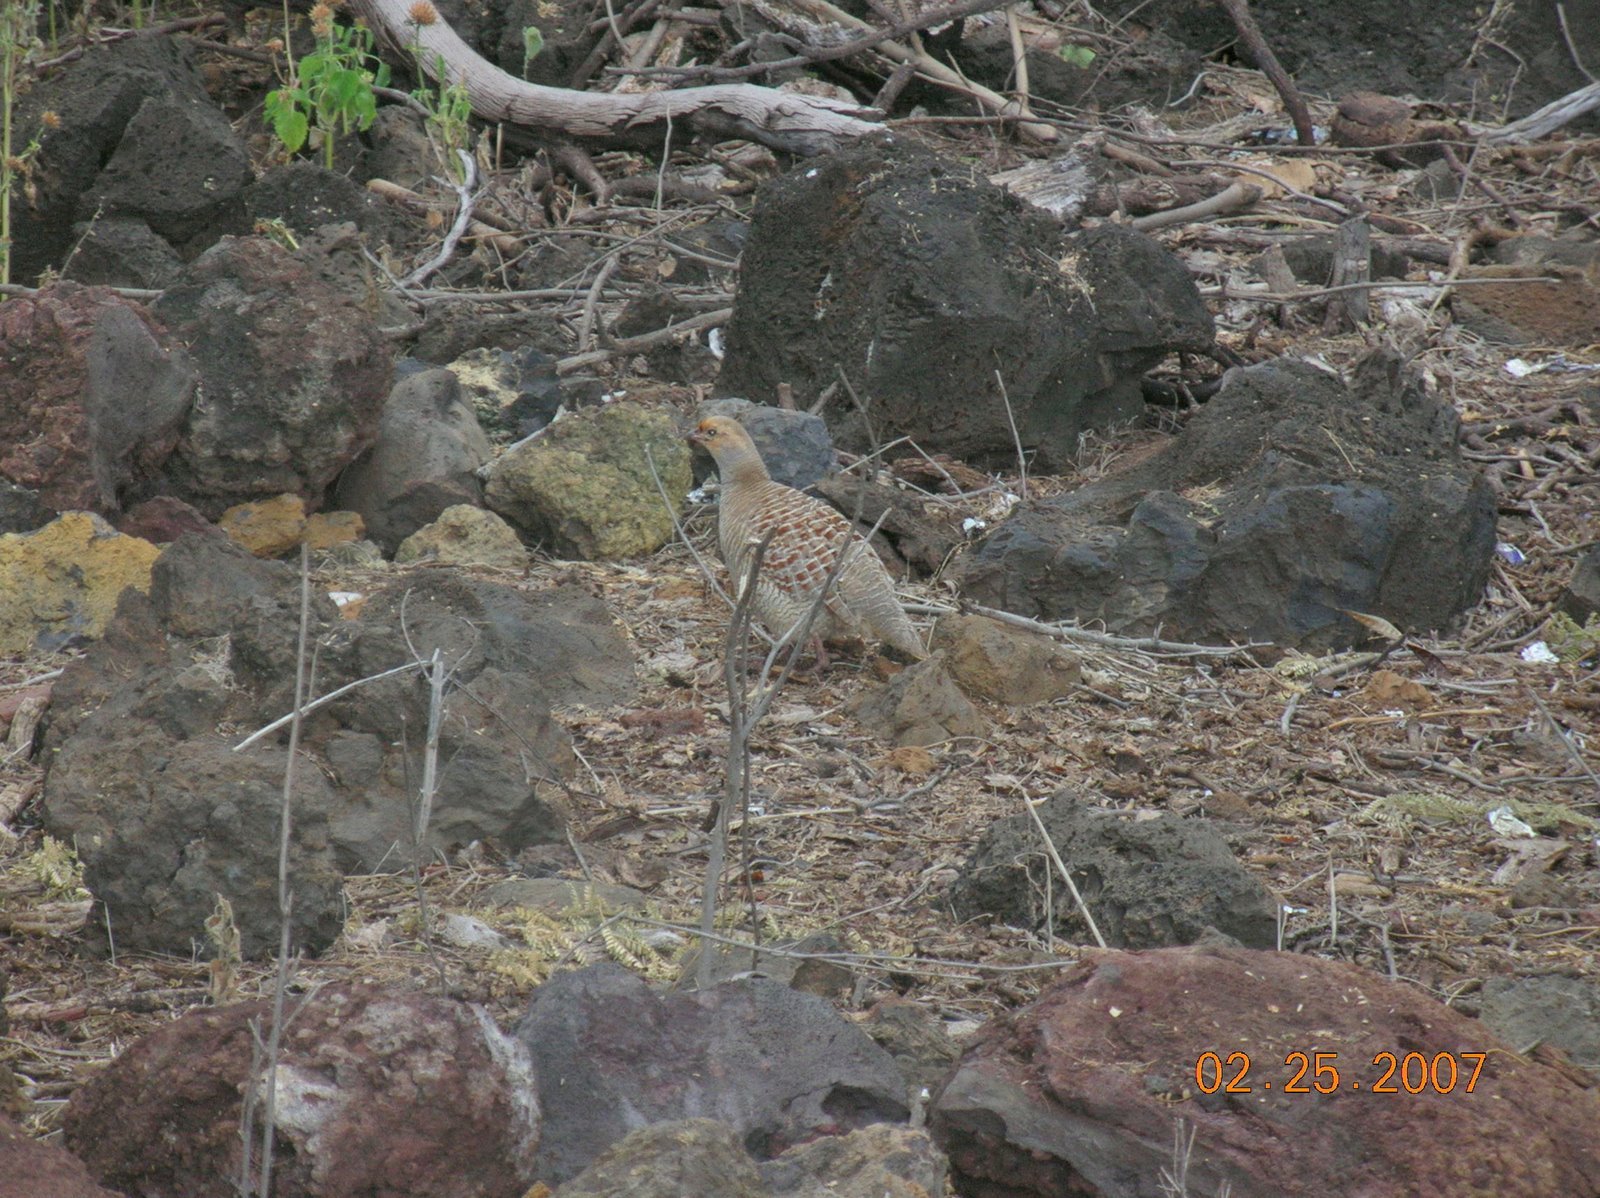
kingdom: Animalia
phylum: Chordata
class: Aves
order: Galliformes
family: Phasianidae
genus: Ortygornis
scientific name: Ortygornis pondicerianus
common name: Grey francolin
